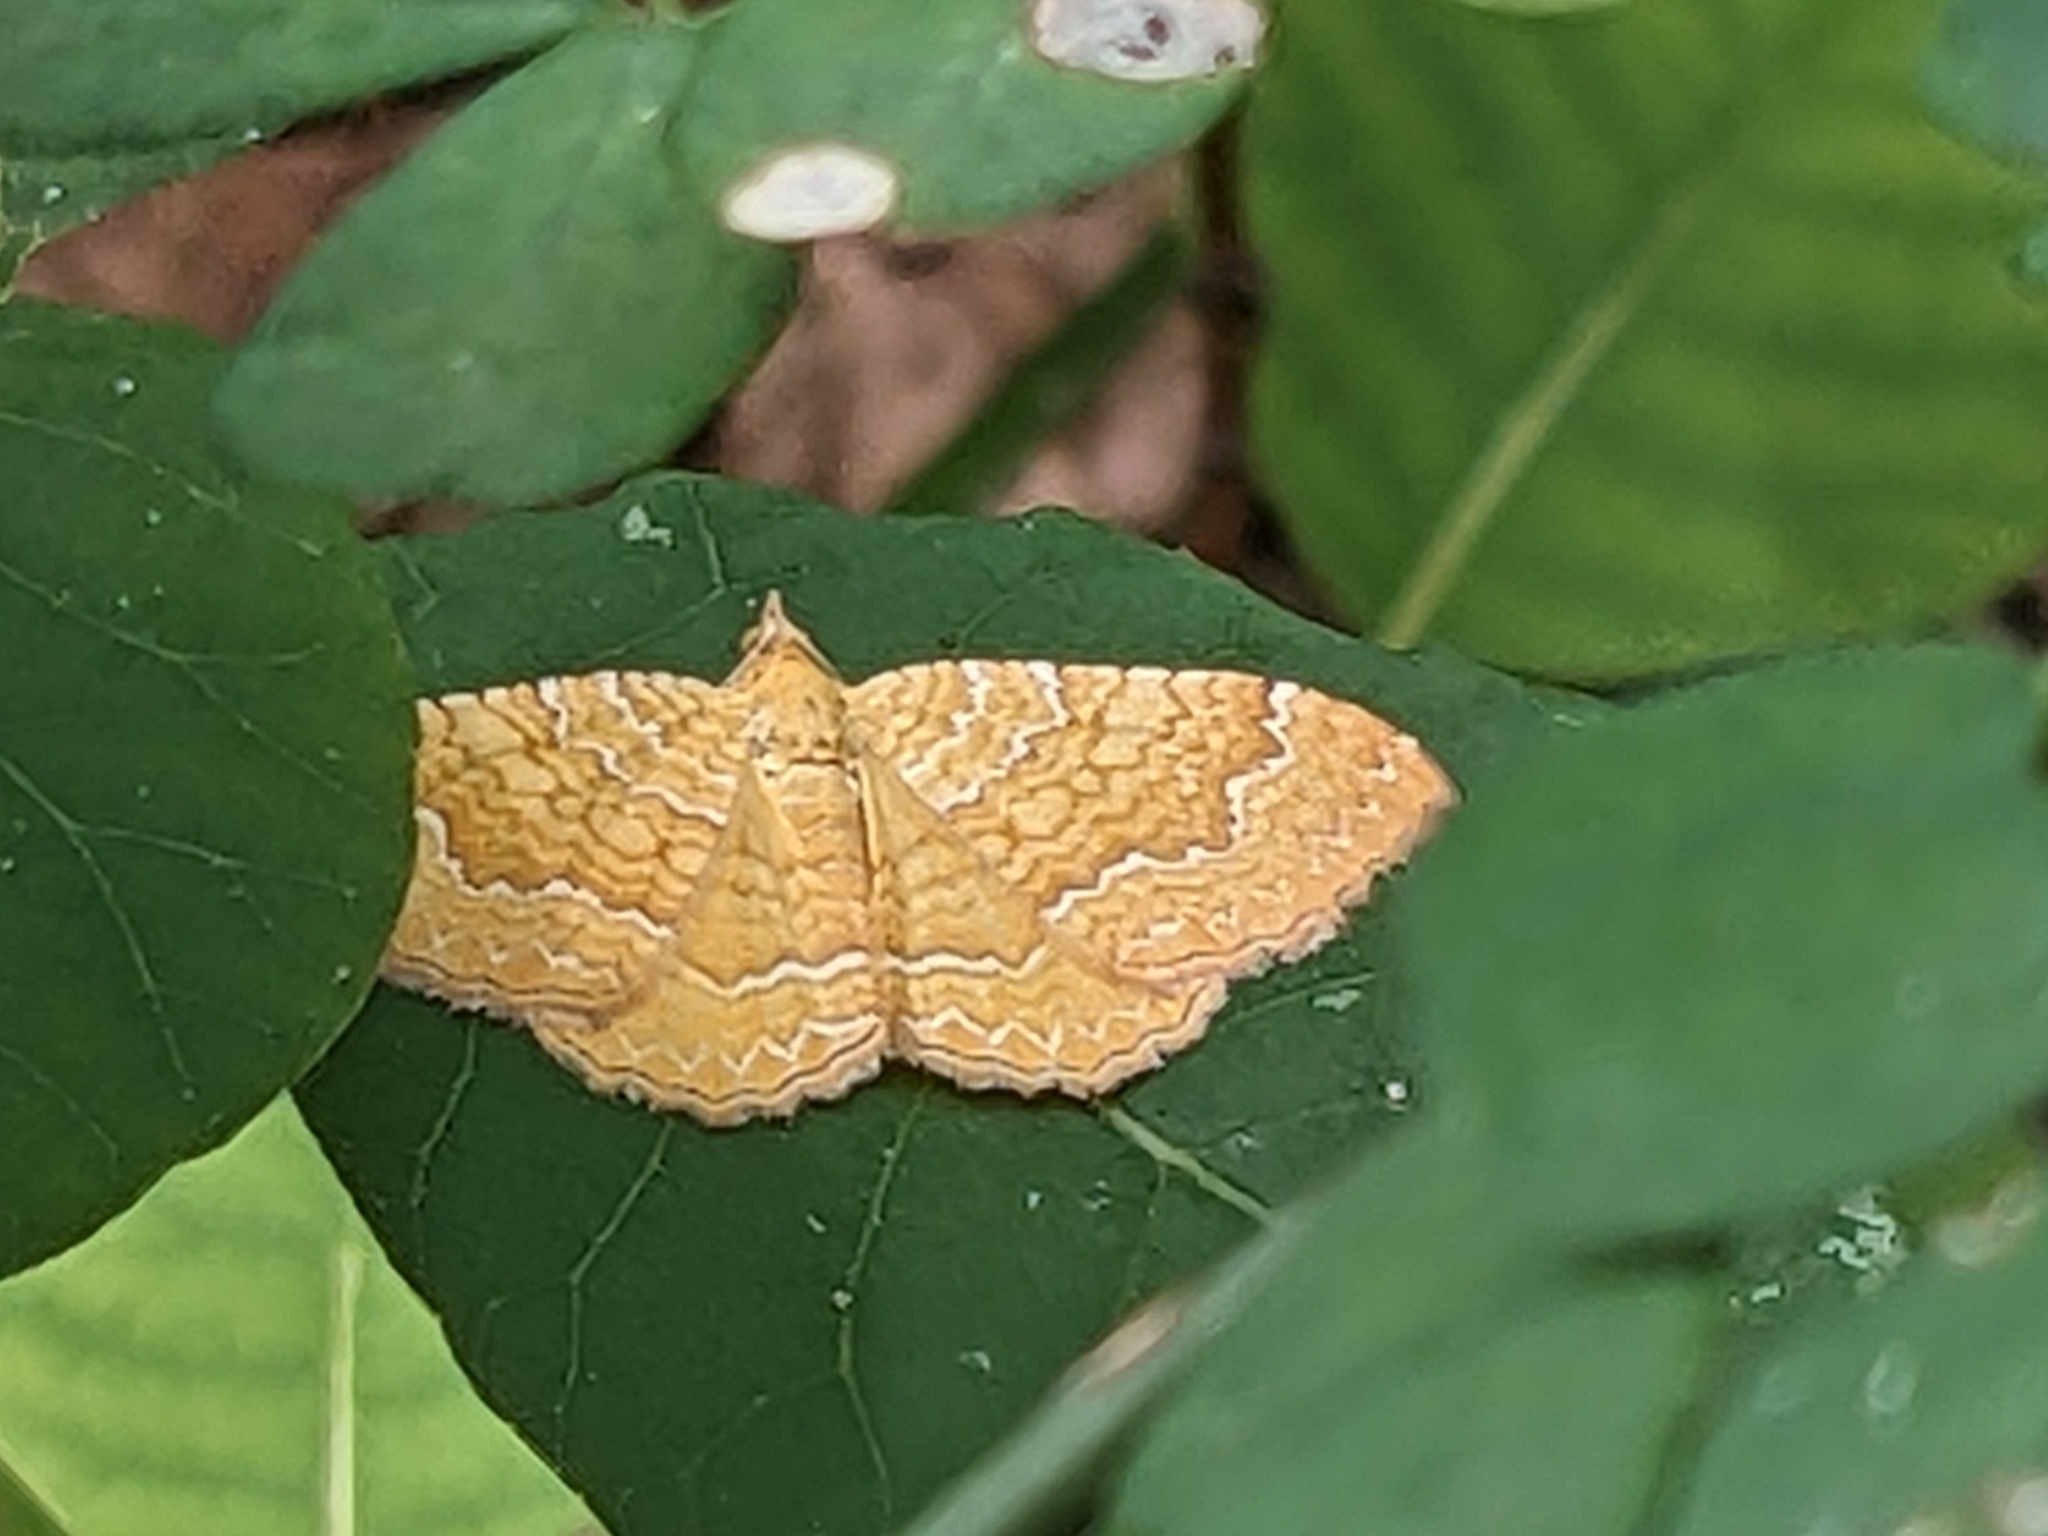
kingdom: Animalia
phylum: Arthropoda
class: Insecta
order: Lepidoptera
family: Geometridae
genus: Camptogramma
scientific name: Camptogramma bilineata
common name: Yellow shell
